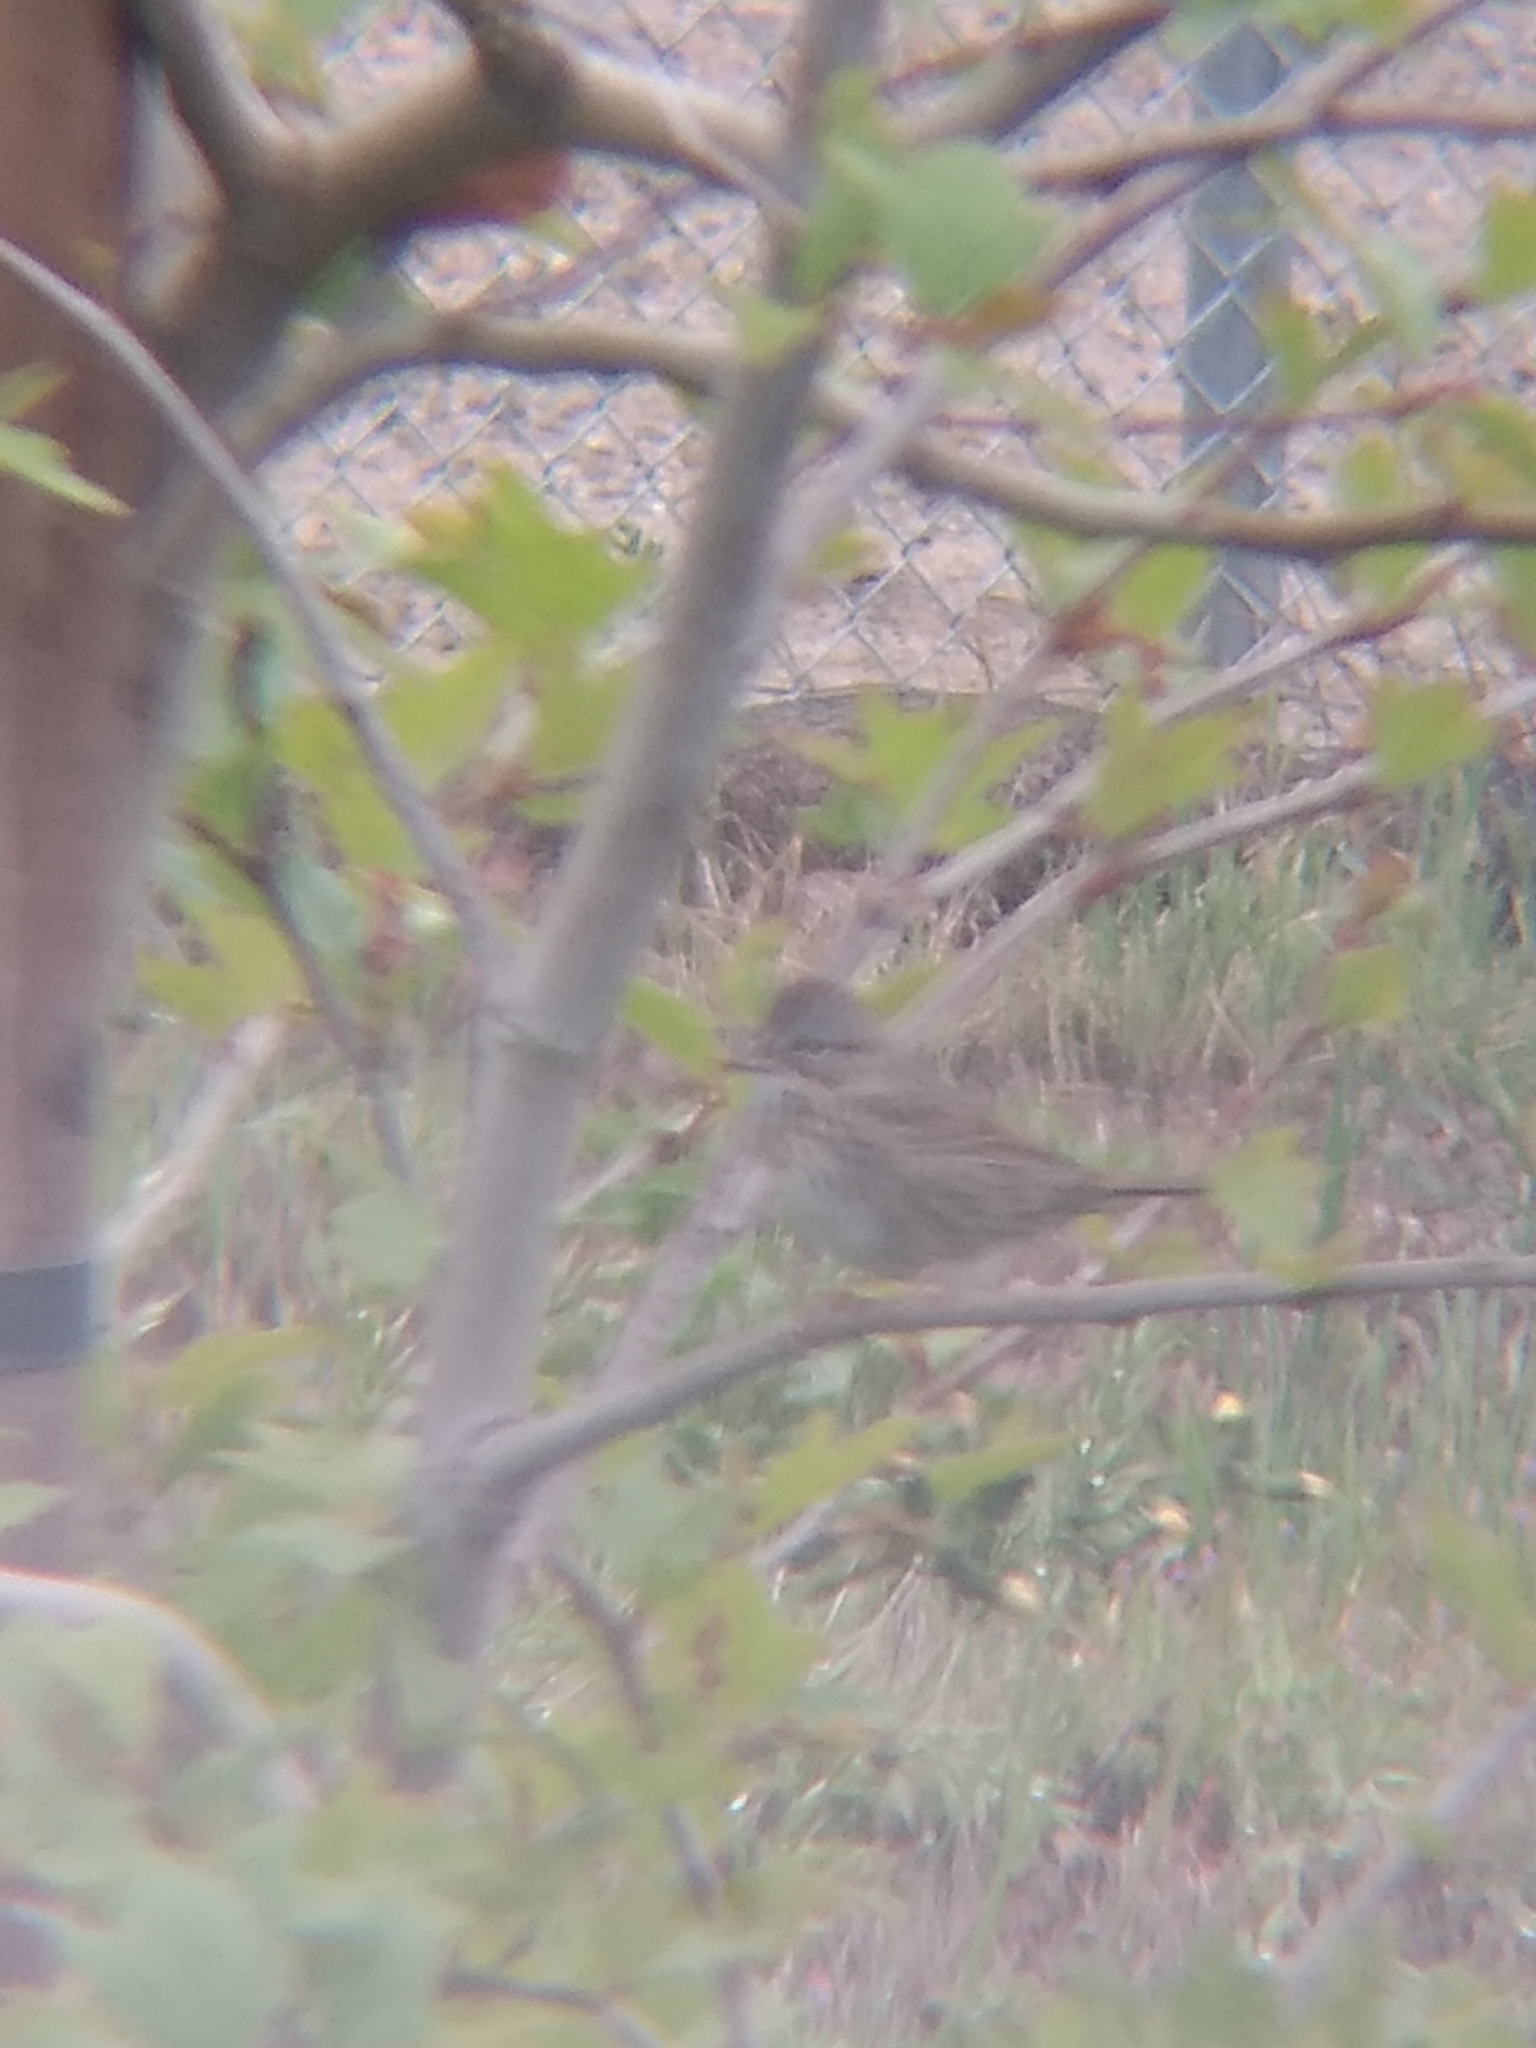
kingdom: Animalia
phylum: Chordata
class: Aves
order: Passeriformes
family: Passerellidae
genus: Melospiza
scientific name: Melospiza lincolnii
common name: Lincoln's sparrow
